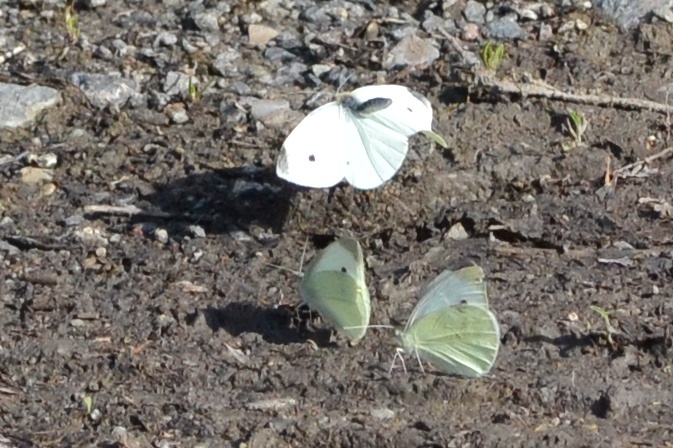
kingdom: Animalia
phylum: Arthropoda
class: Insecta
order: Lepidoptera
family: Pieridae
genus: Pieris
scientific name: Pieris rapae
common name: Small white
